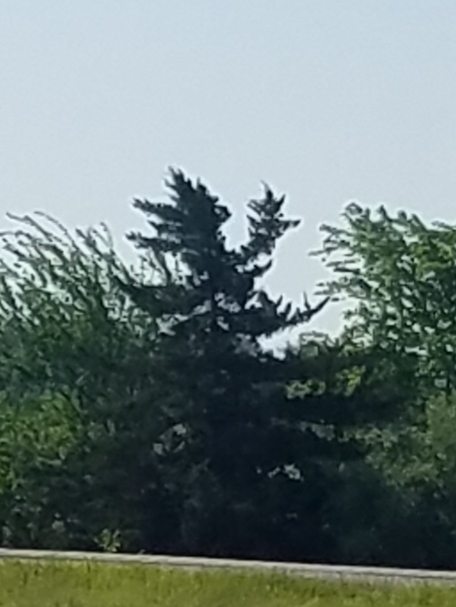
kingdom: Plantae
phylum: Tracheophyta
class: Pinopsida
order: Pinales
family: Pinaceae
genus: Pinus
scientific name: Pinus strobus
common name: Weymouth pine
